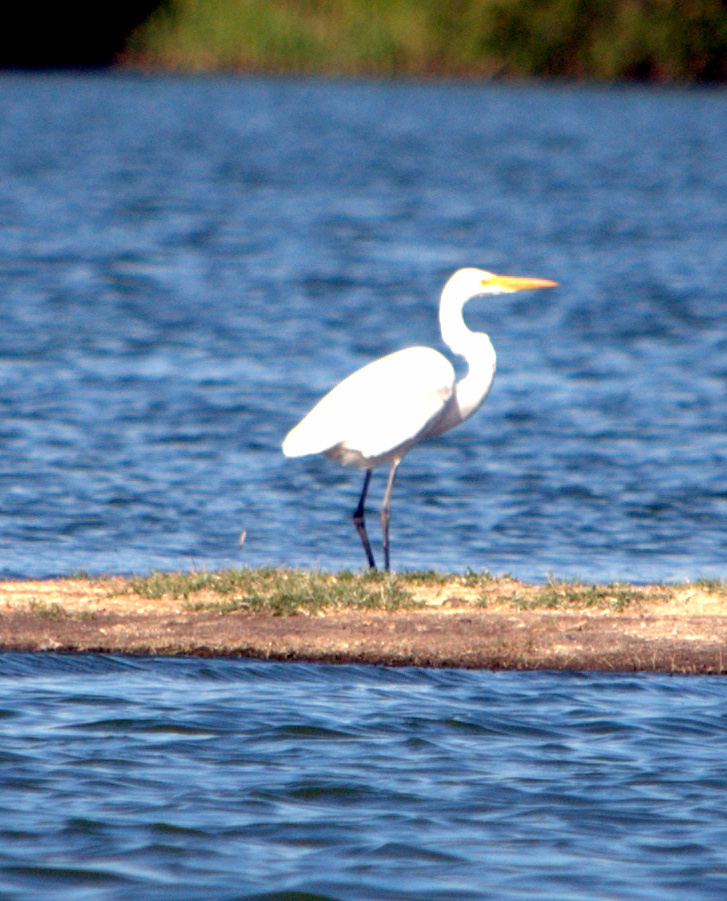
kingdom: Animalia
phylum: Chordata
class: Aves
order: Pelecaniformes
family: Ardeidae
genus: Ardea
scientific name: Ardea alba
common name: Great egret
